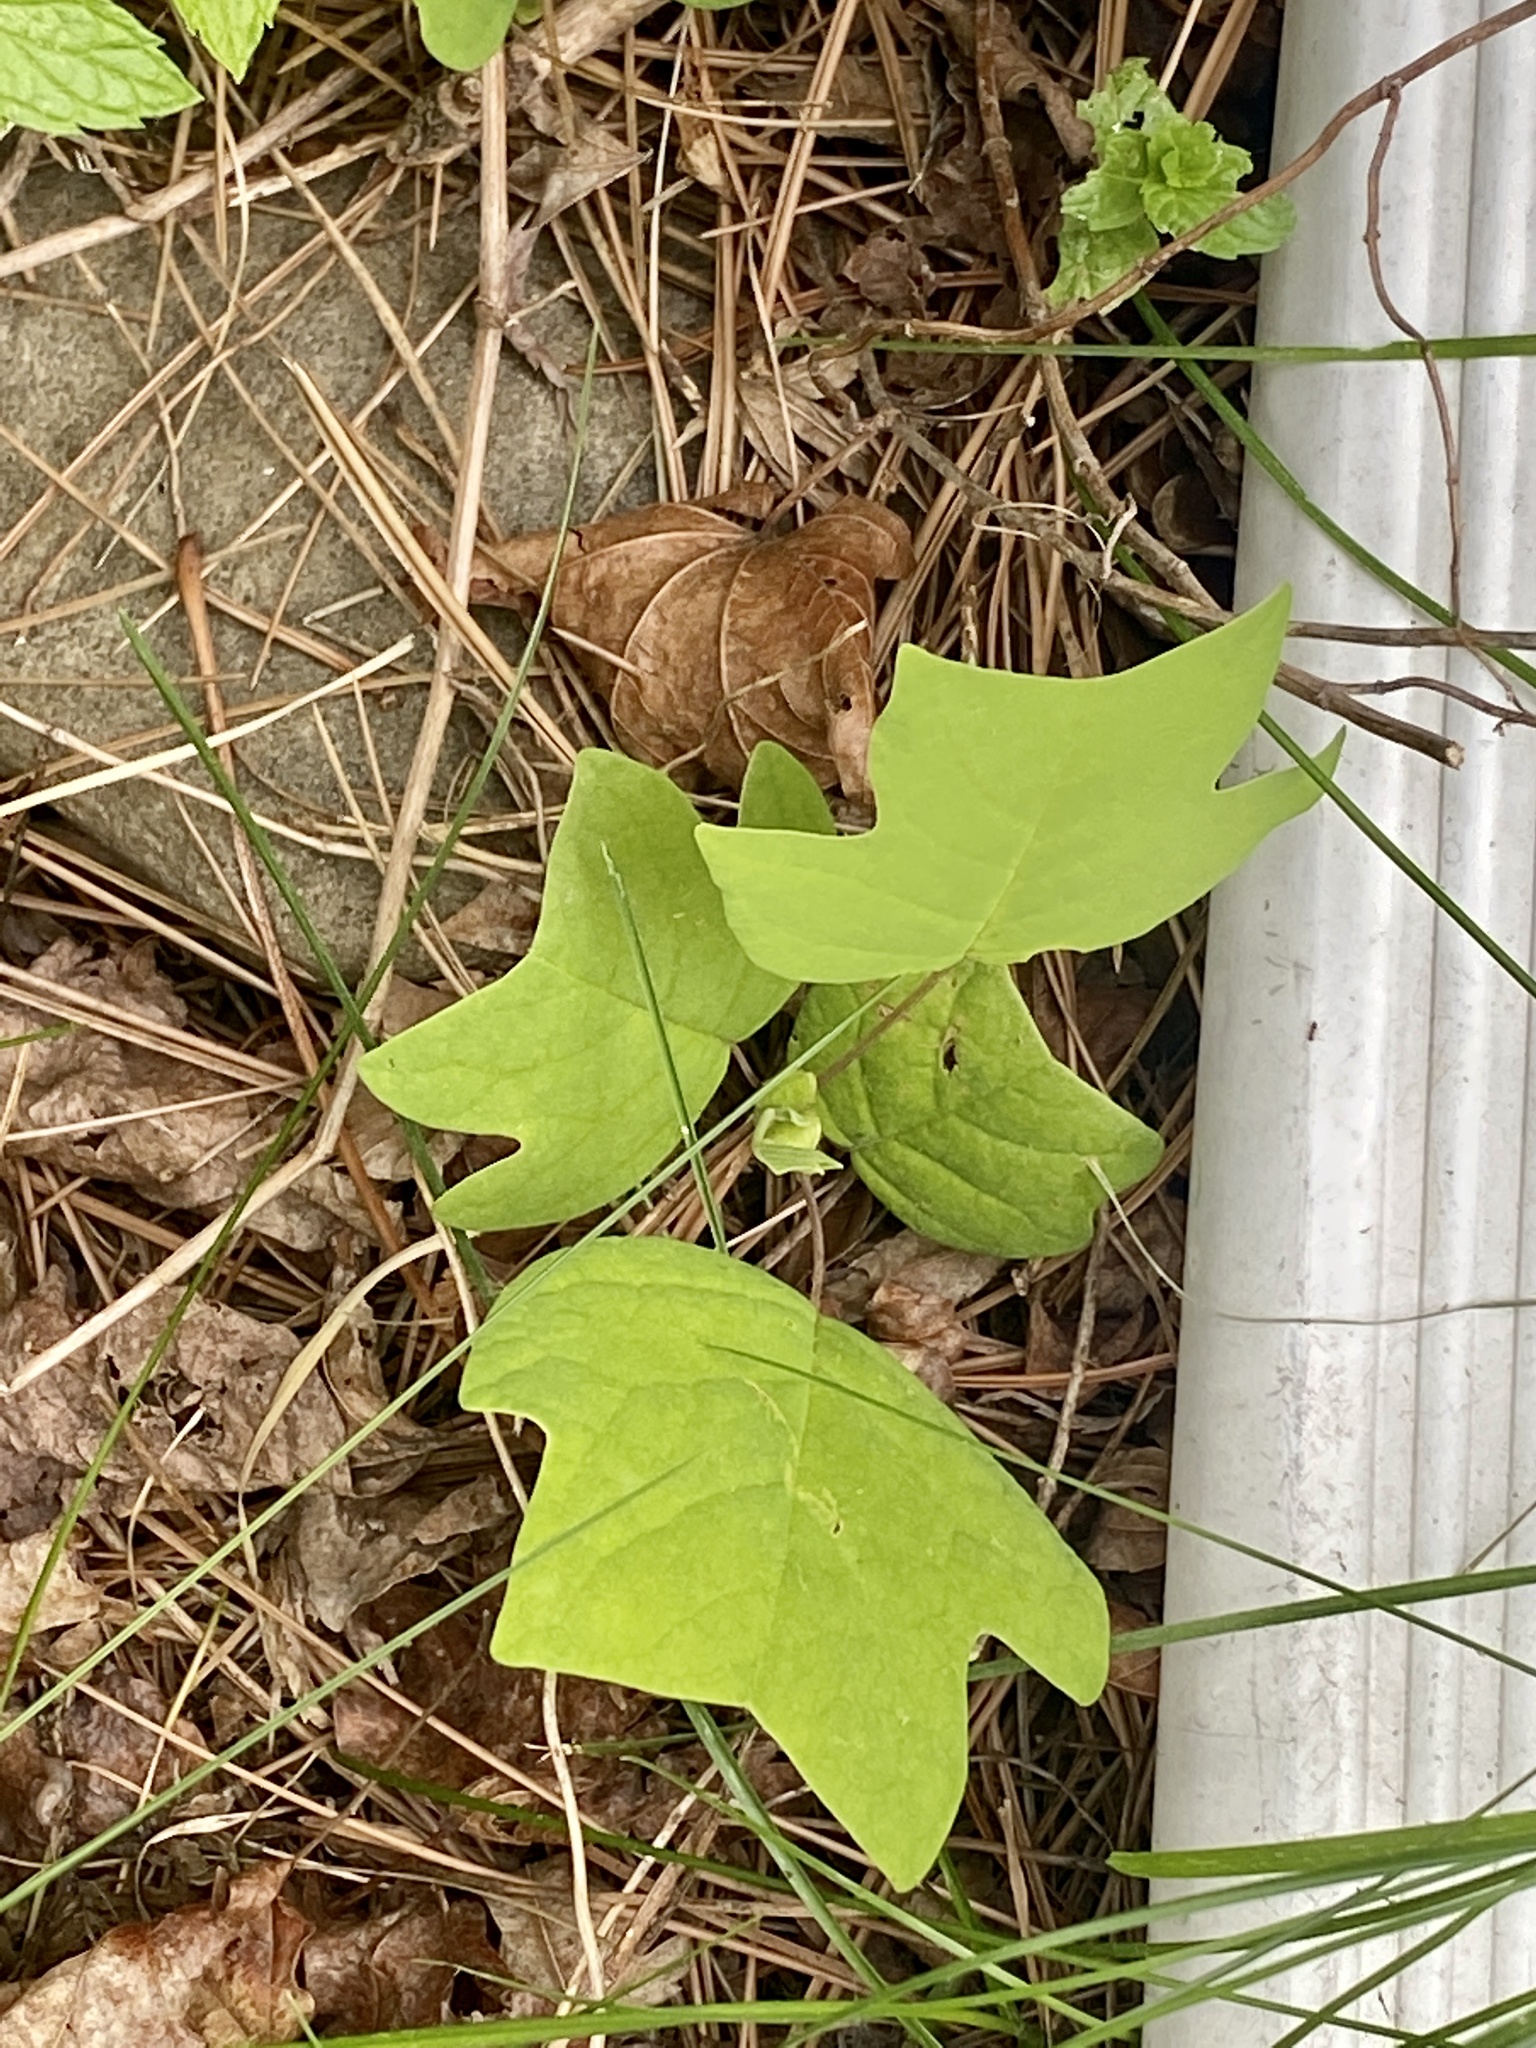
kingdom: Plantae
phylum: Tracheophyta
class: Magnoliopsida
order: Magnoliales
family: Magnoliaceae
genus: Liriodendron
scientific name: Liriodendron tulipifera
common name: Tulip tree
